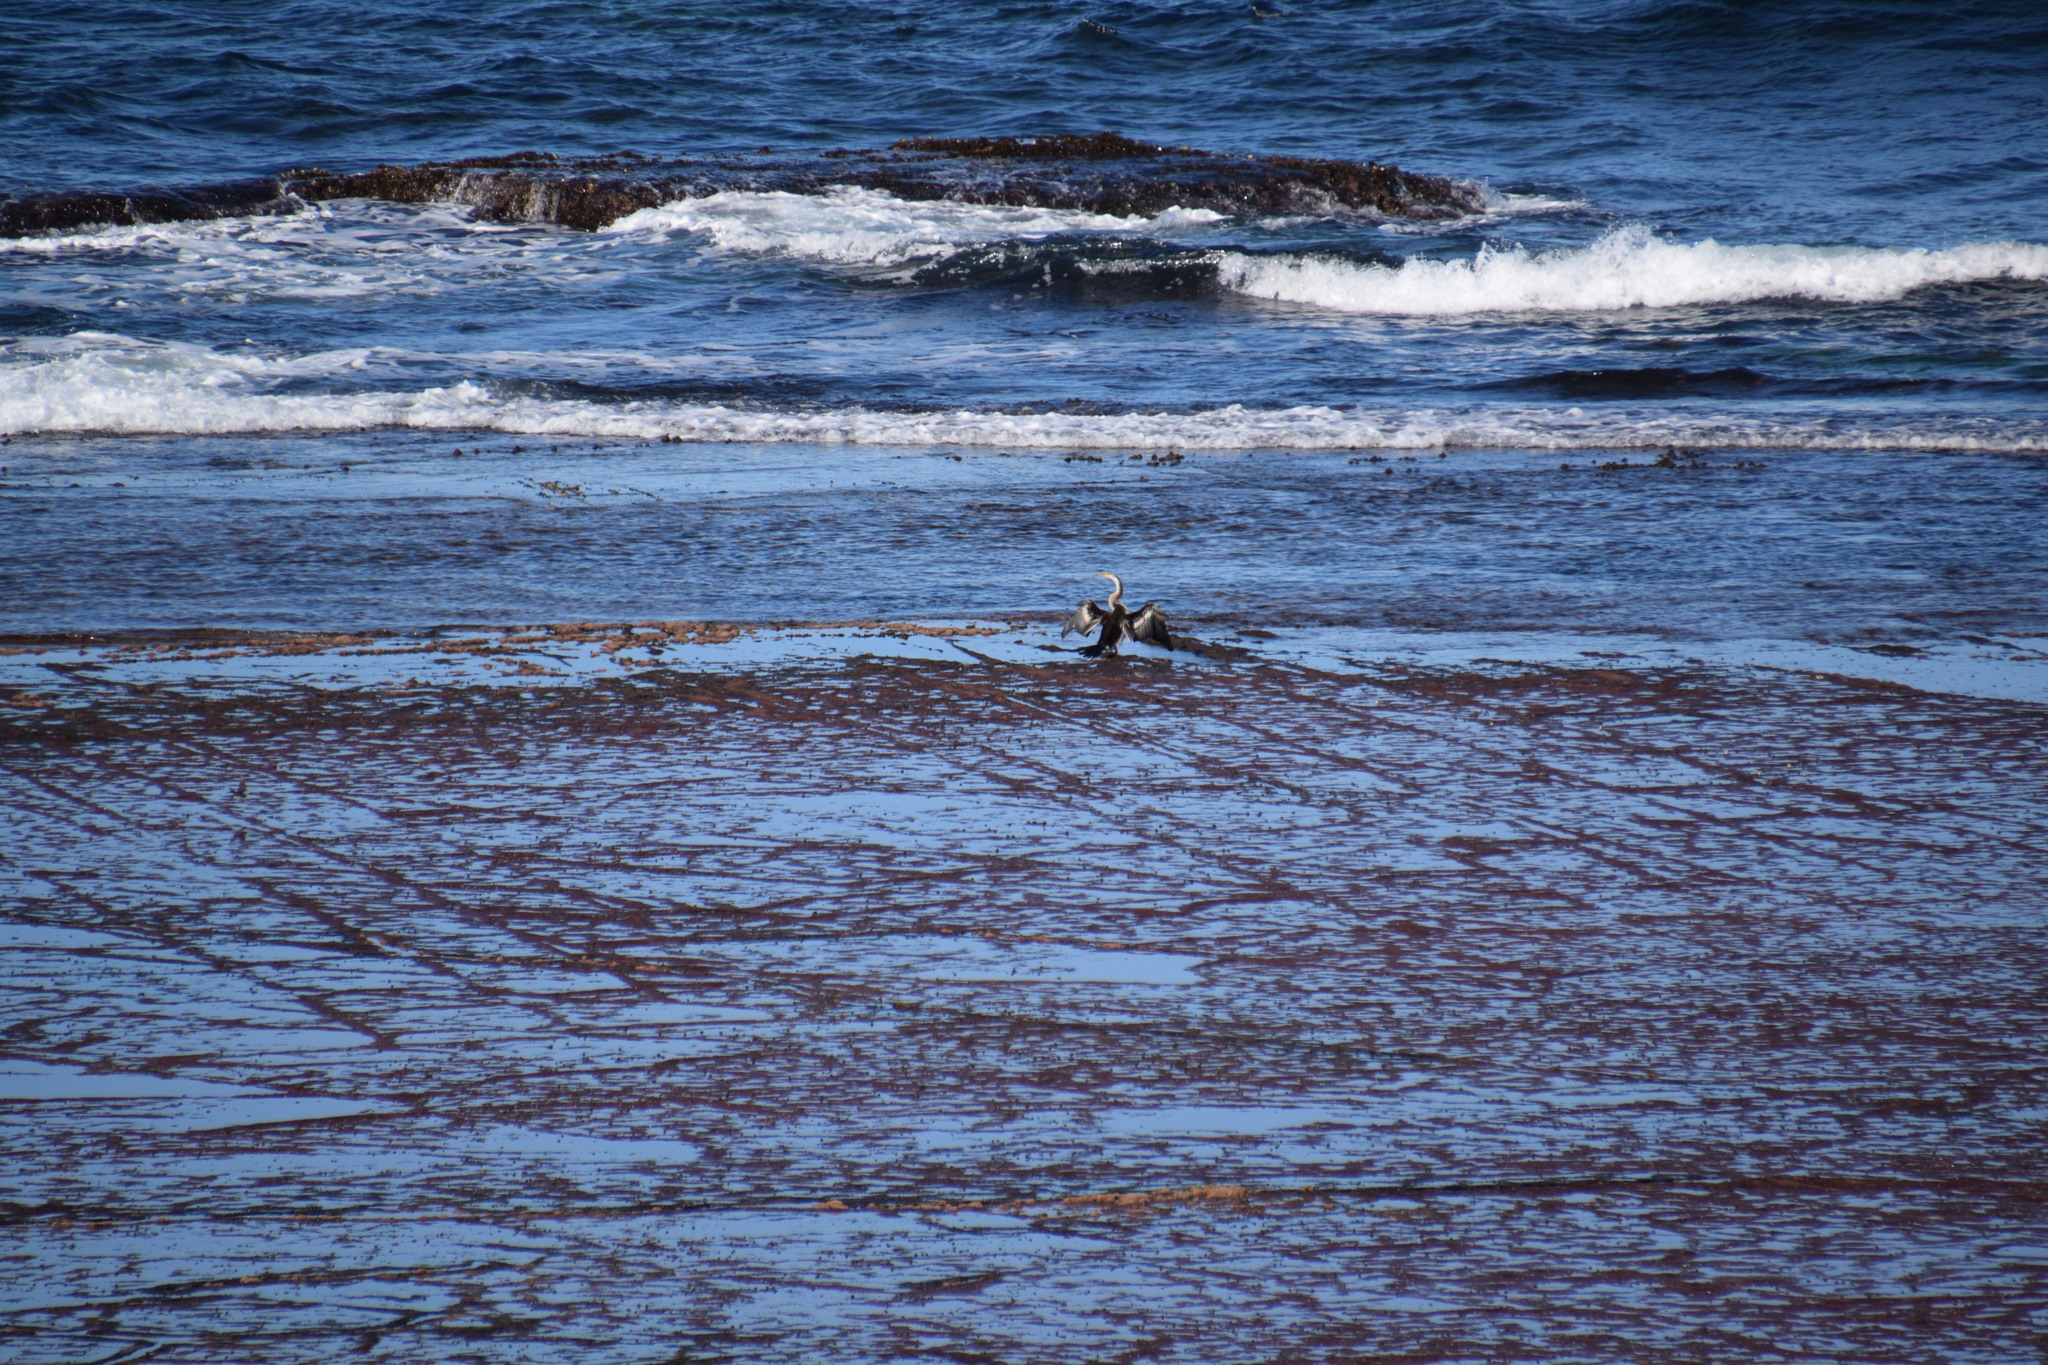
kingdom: Animalia
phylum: Chordata
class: Aves
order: Suliformes
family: Anhingidae
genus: Anhinga
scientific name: Anhinga novaehollandiae
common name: Australasian darter
